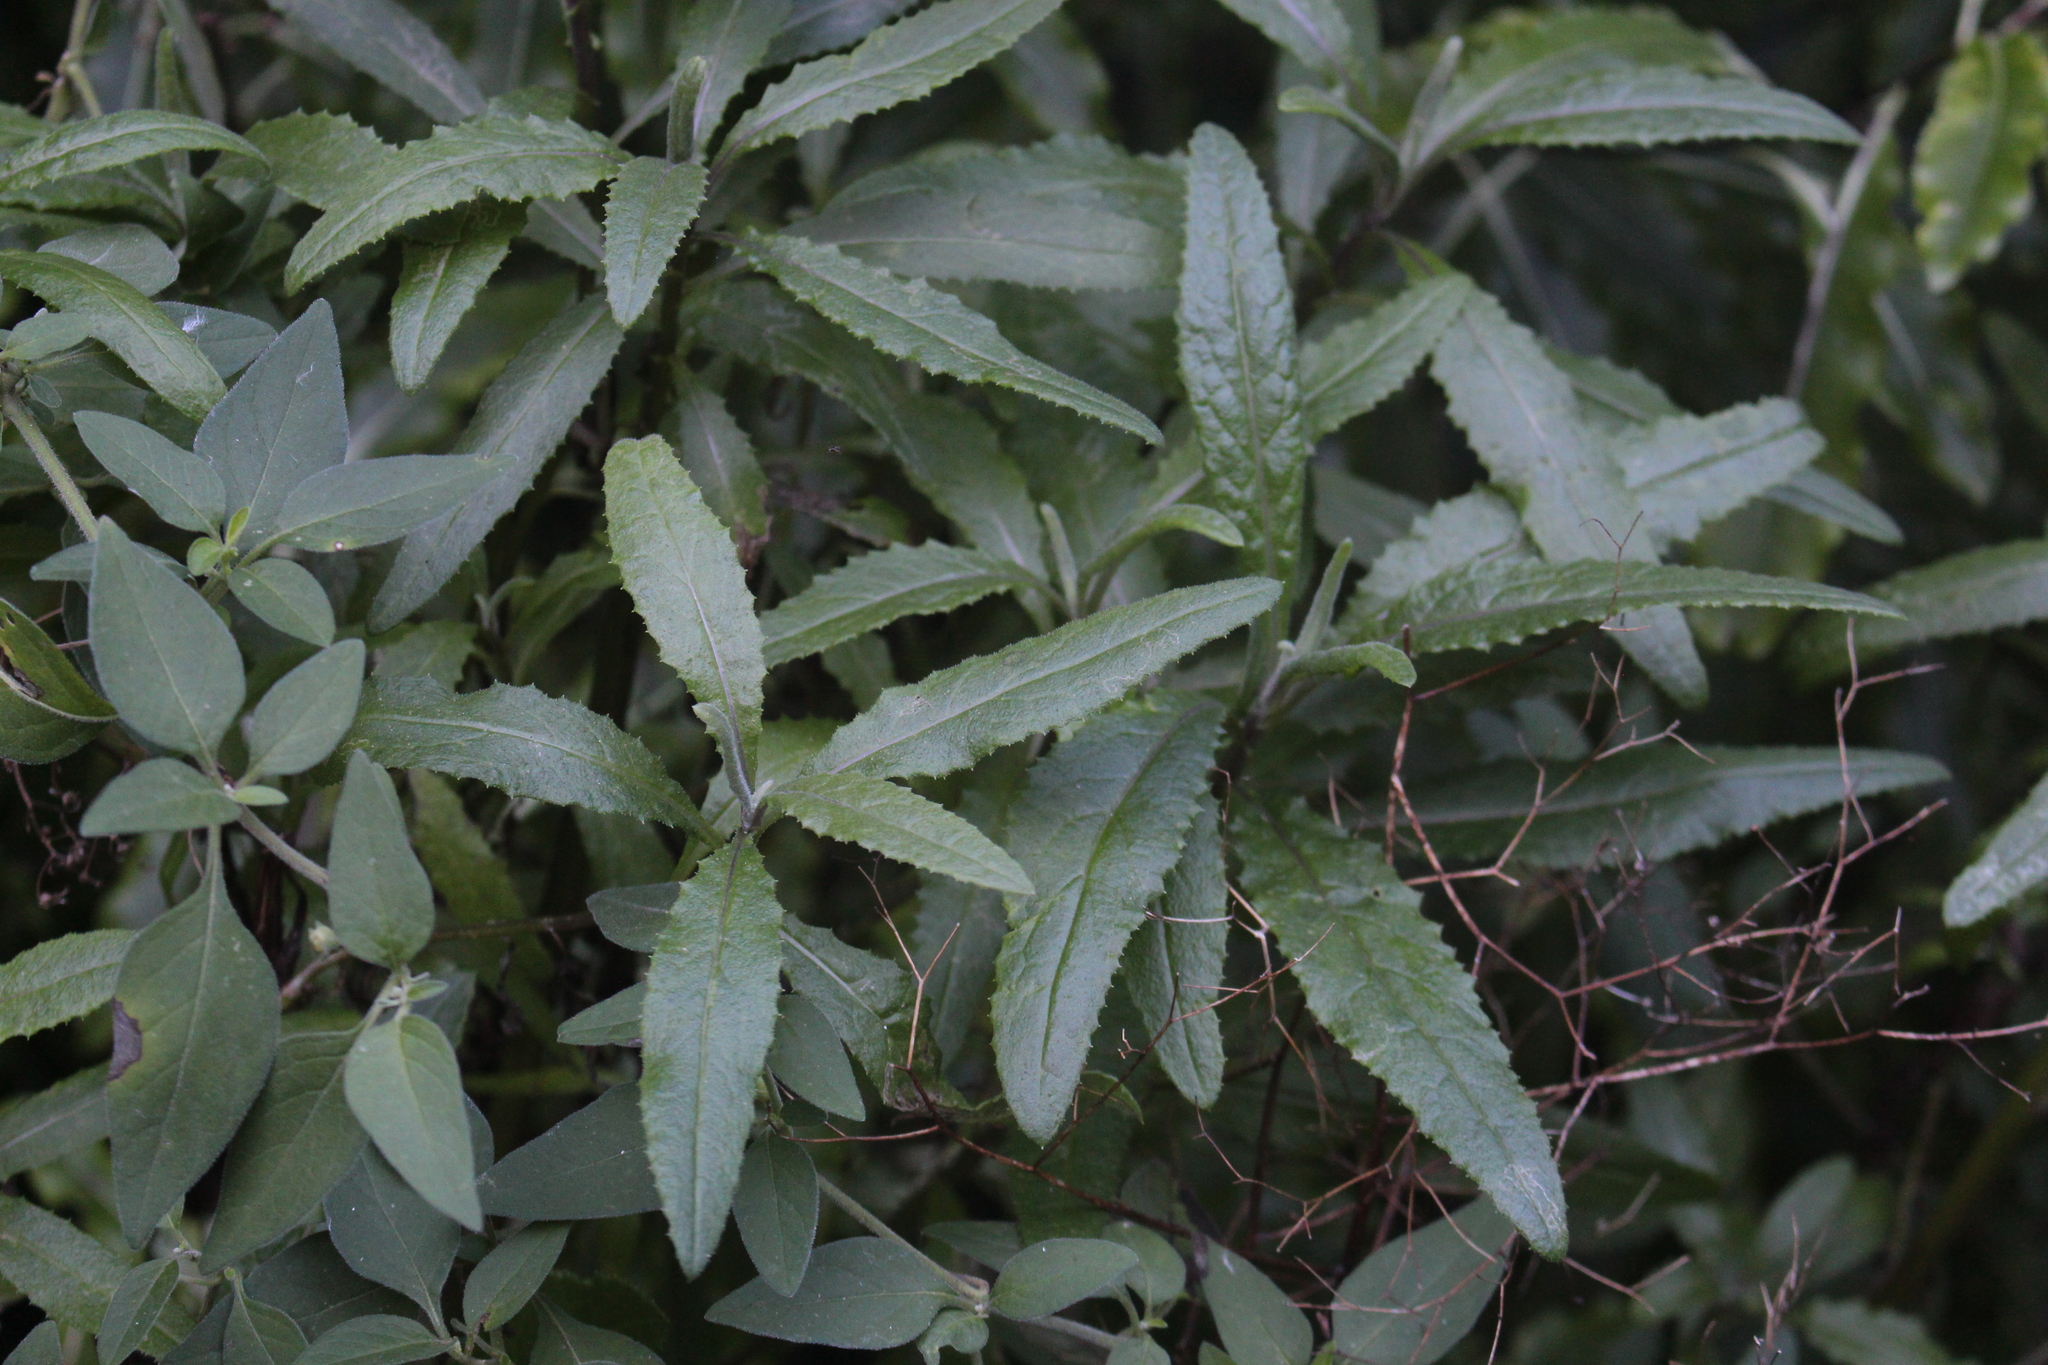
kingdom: Plantae
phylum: Tracheophyta
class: Magnoliopsida
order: Asterales
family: Asteraceae
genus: Senecio
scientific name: Senecio minimus
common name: Toothed fireweed
